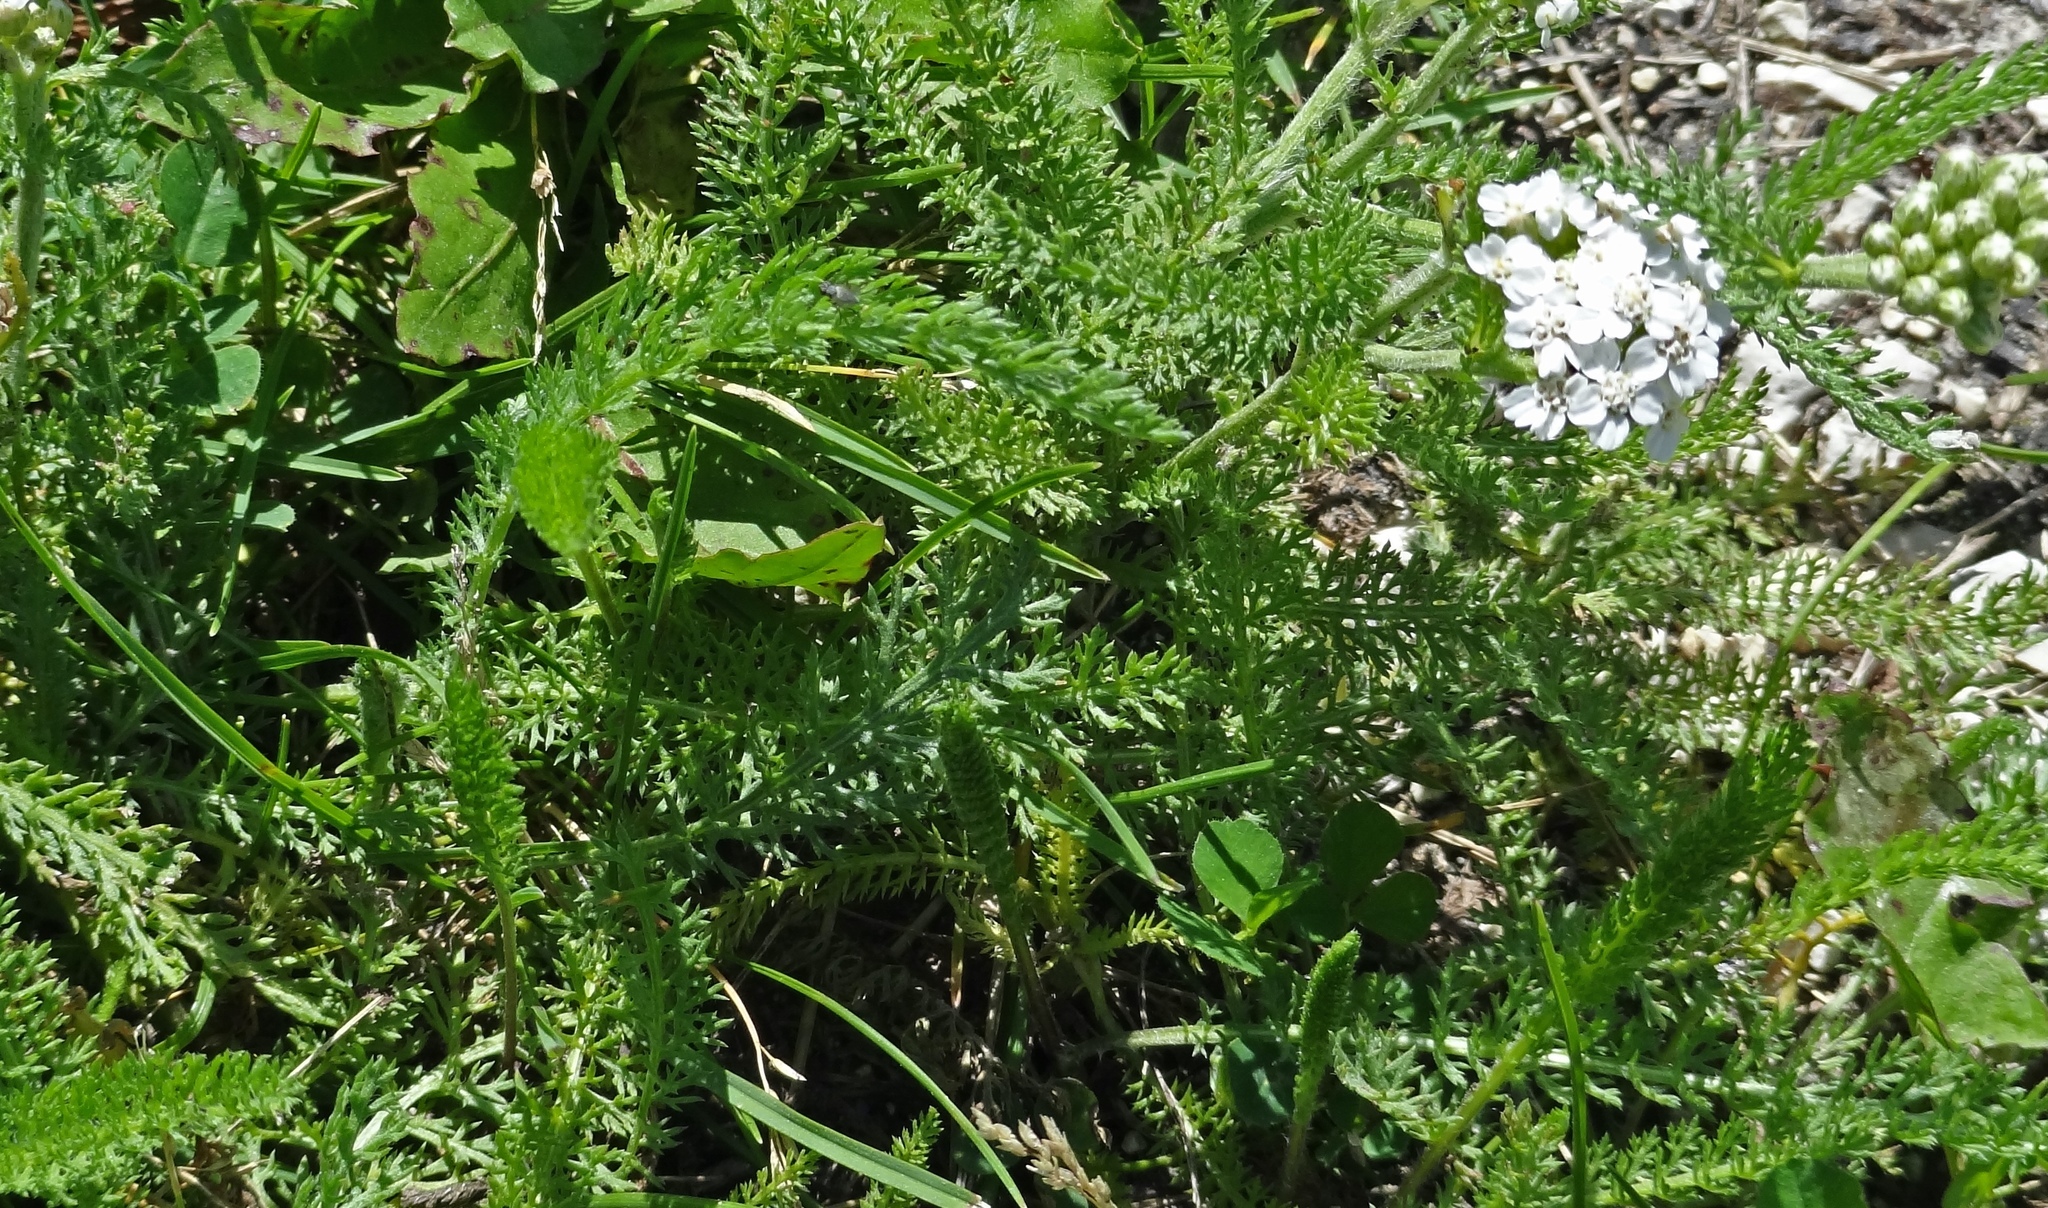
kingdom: Plantae
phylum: Tracheophyta
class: Magnoliopsida
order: Asterales
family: Asteraceae
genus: Achillea
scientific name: Achillea millefolium
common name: Yarrow
